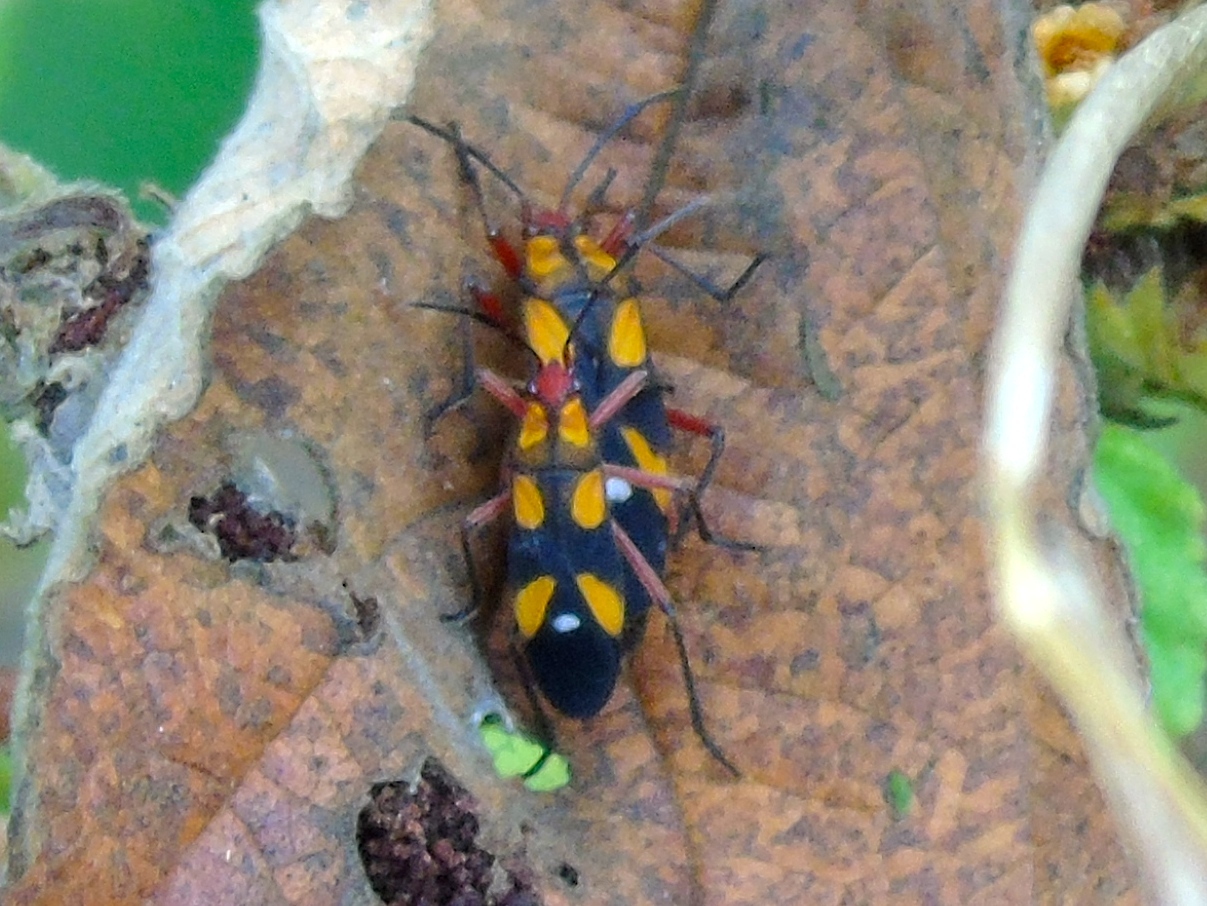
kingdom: Animalia
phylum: Arthropoda
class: Insecta
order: Hemiptera
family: Lygaeidae
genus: Oncopeltus
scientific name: Oncopeltus guttaloides
